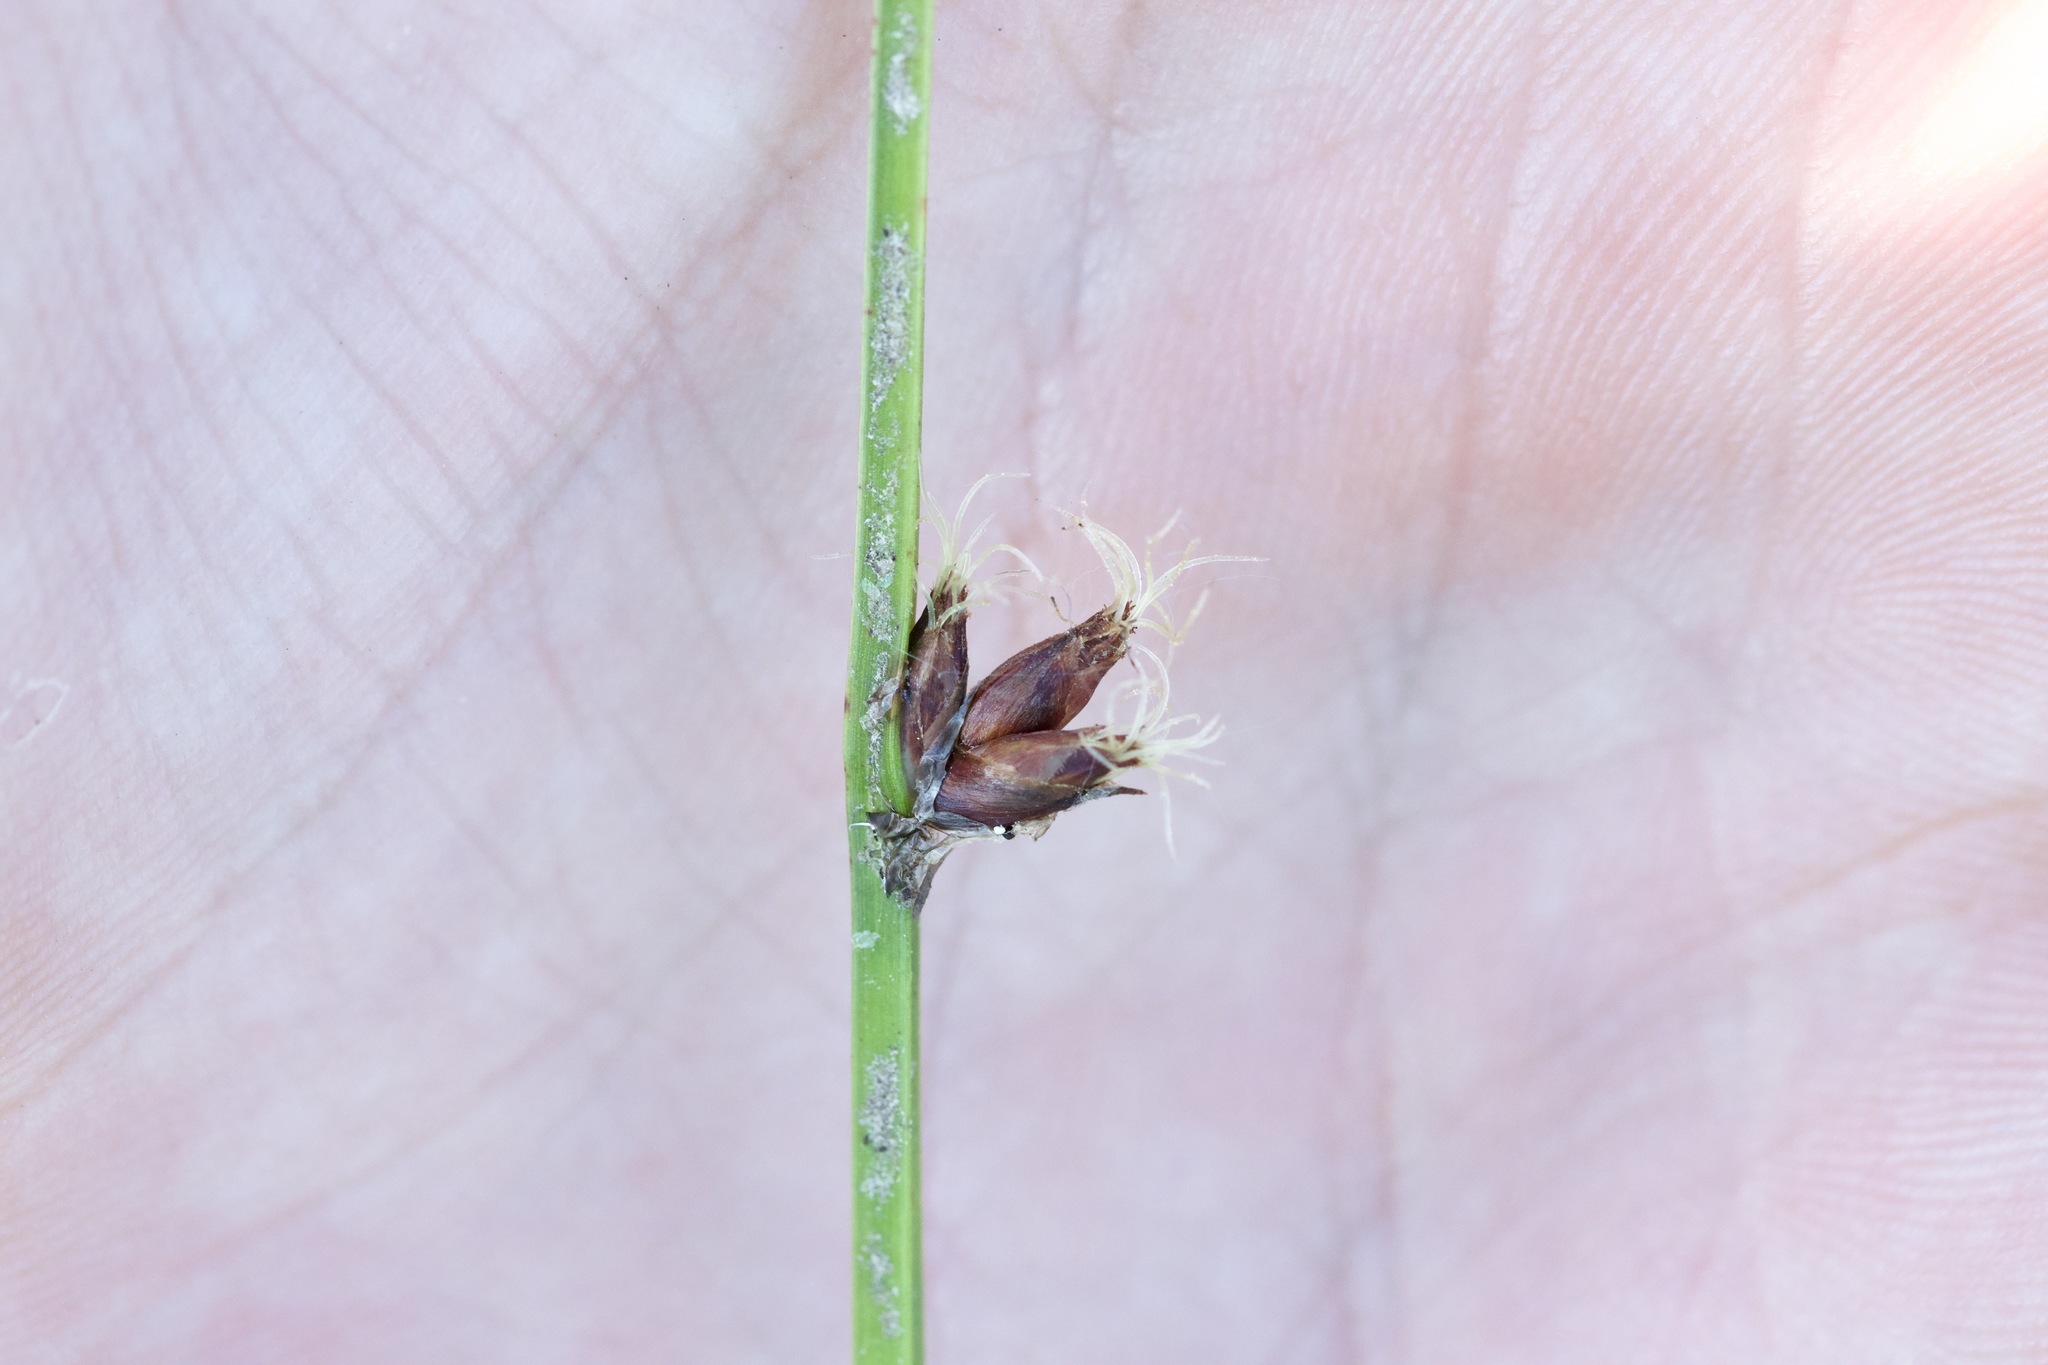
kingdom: Plantae
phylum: Tracheophyta
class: Liliopsida
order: Poales
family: Cyperaceae
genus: Schoenoplectus
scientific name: Schoenoplectus pungens
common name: Sharp club-rush
